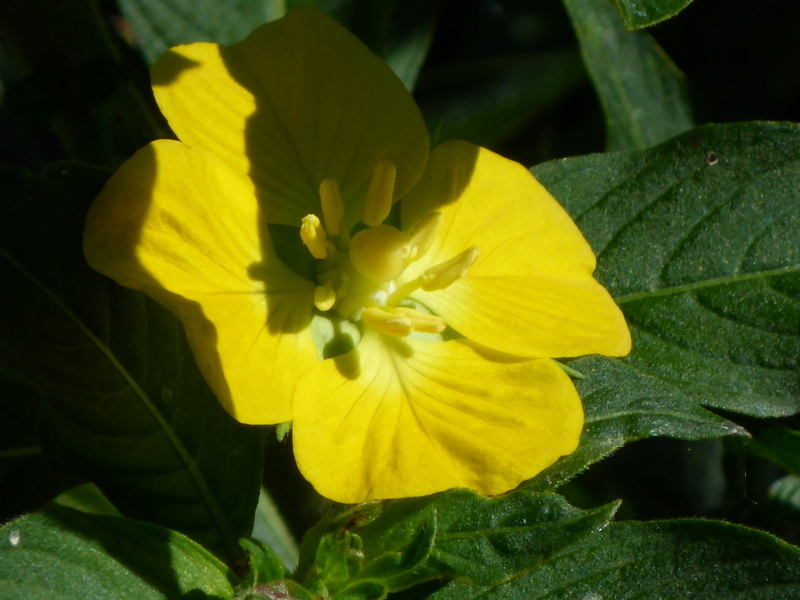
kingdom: Plantae
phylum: Tracheophyta
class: Magnoliopsida
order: Myrtales
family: Onagraceae
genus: Ludwigia
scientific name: Ludwigia peruviana
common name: Peruvian primrose-willow
